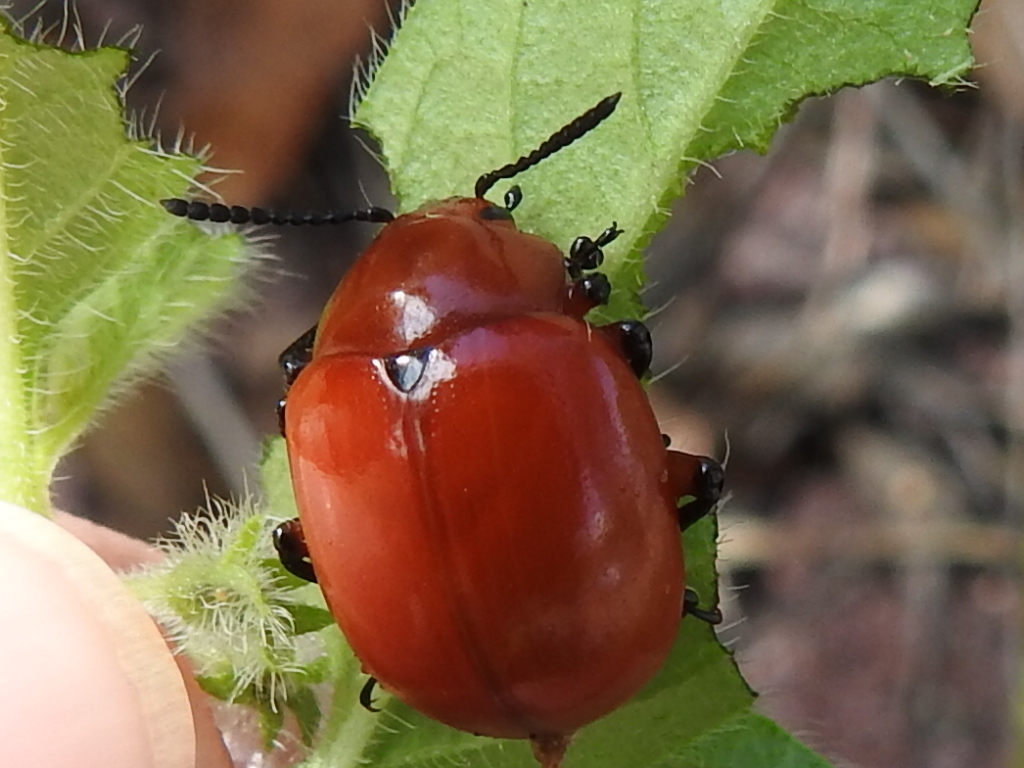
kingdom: Animalia
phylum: Arthropoda
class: Insecta
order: Coleoptera
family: Chrysomelidae
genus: Leptinotarsa
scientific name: Leptinotarsa rubiginosa
